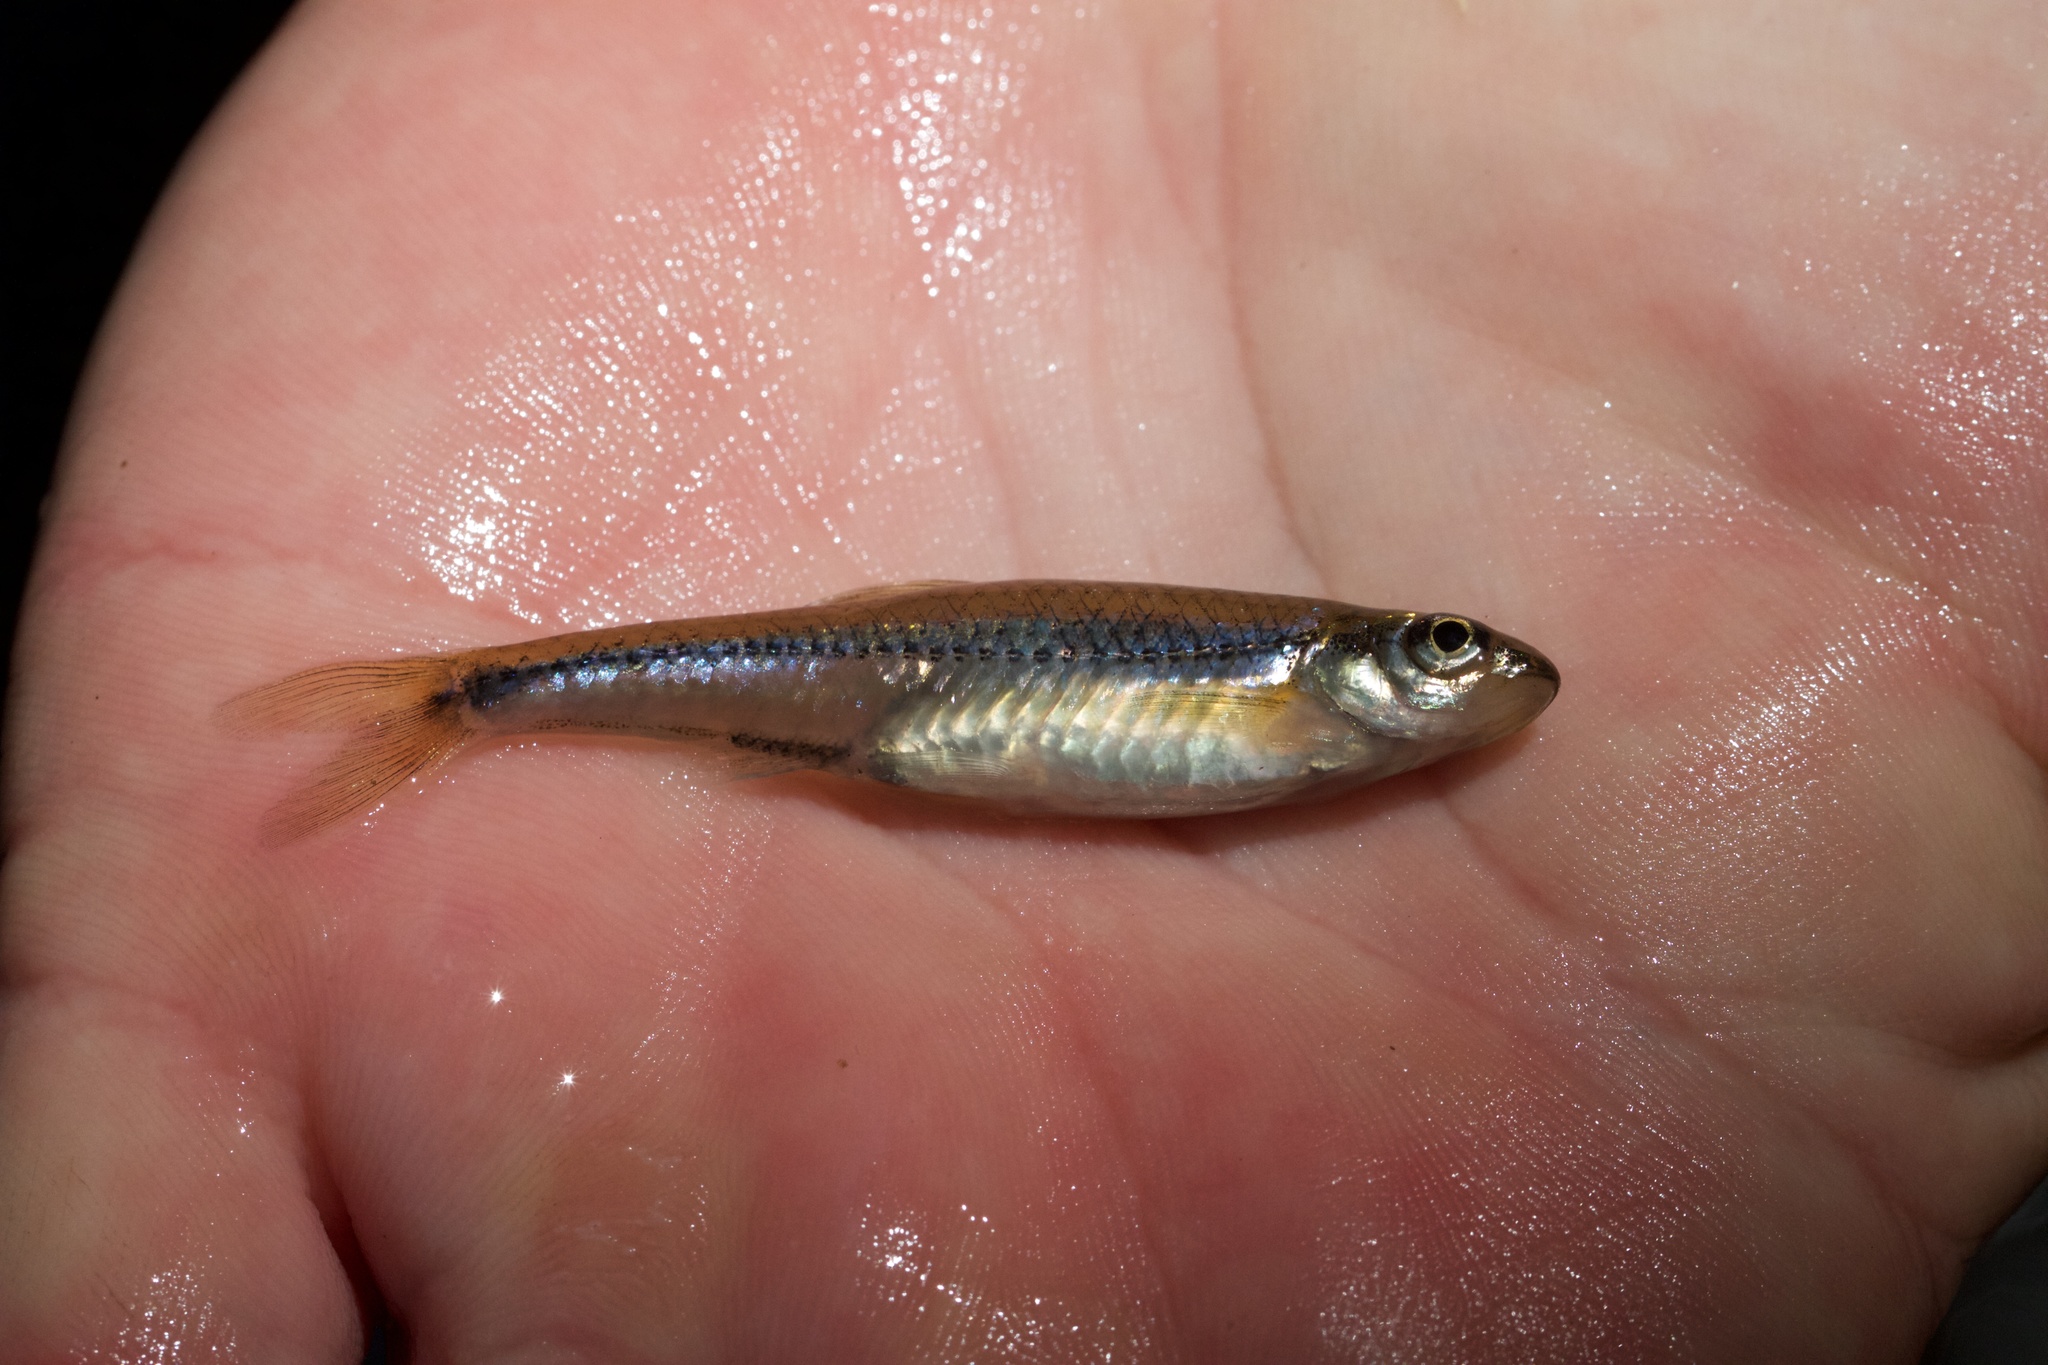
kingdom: Animalia
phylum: Chordata
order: Cypriniformes
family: Cyprinidae
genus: Notropis
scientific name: Notropis
